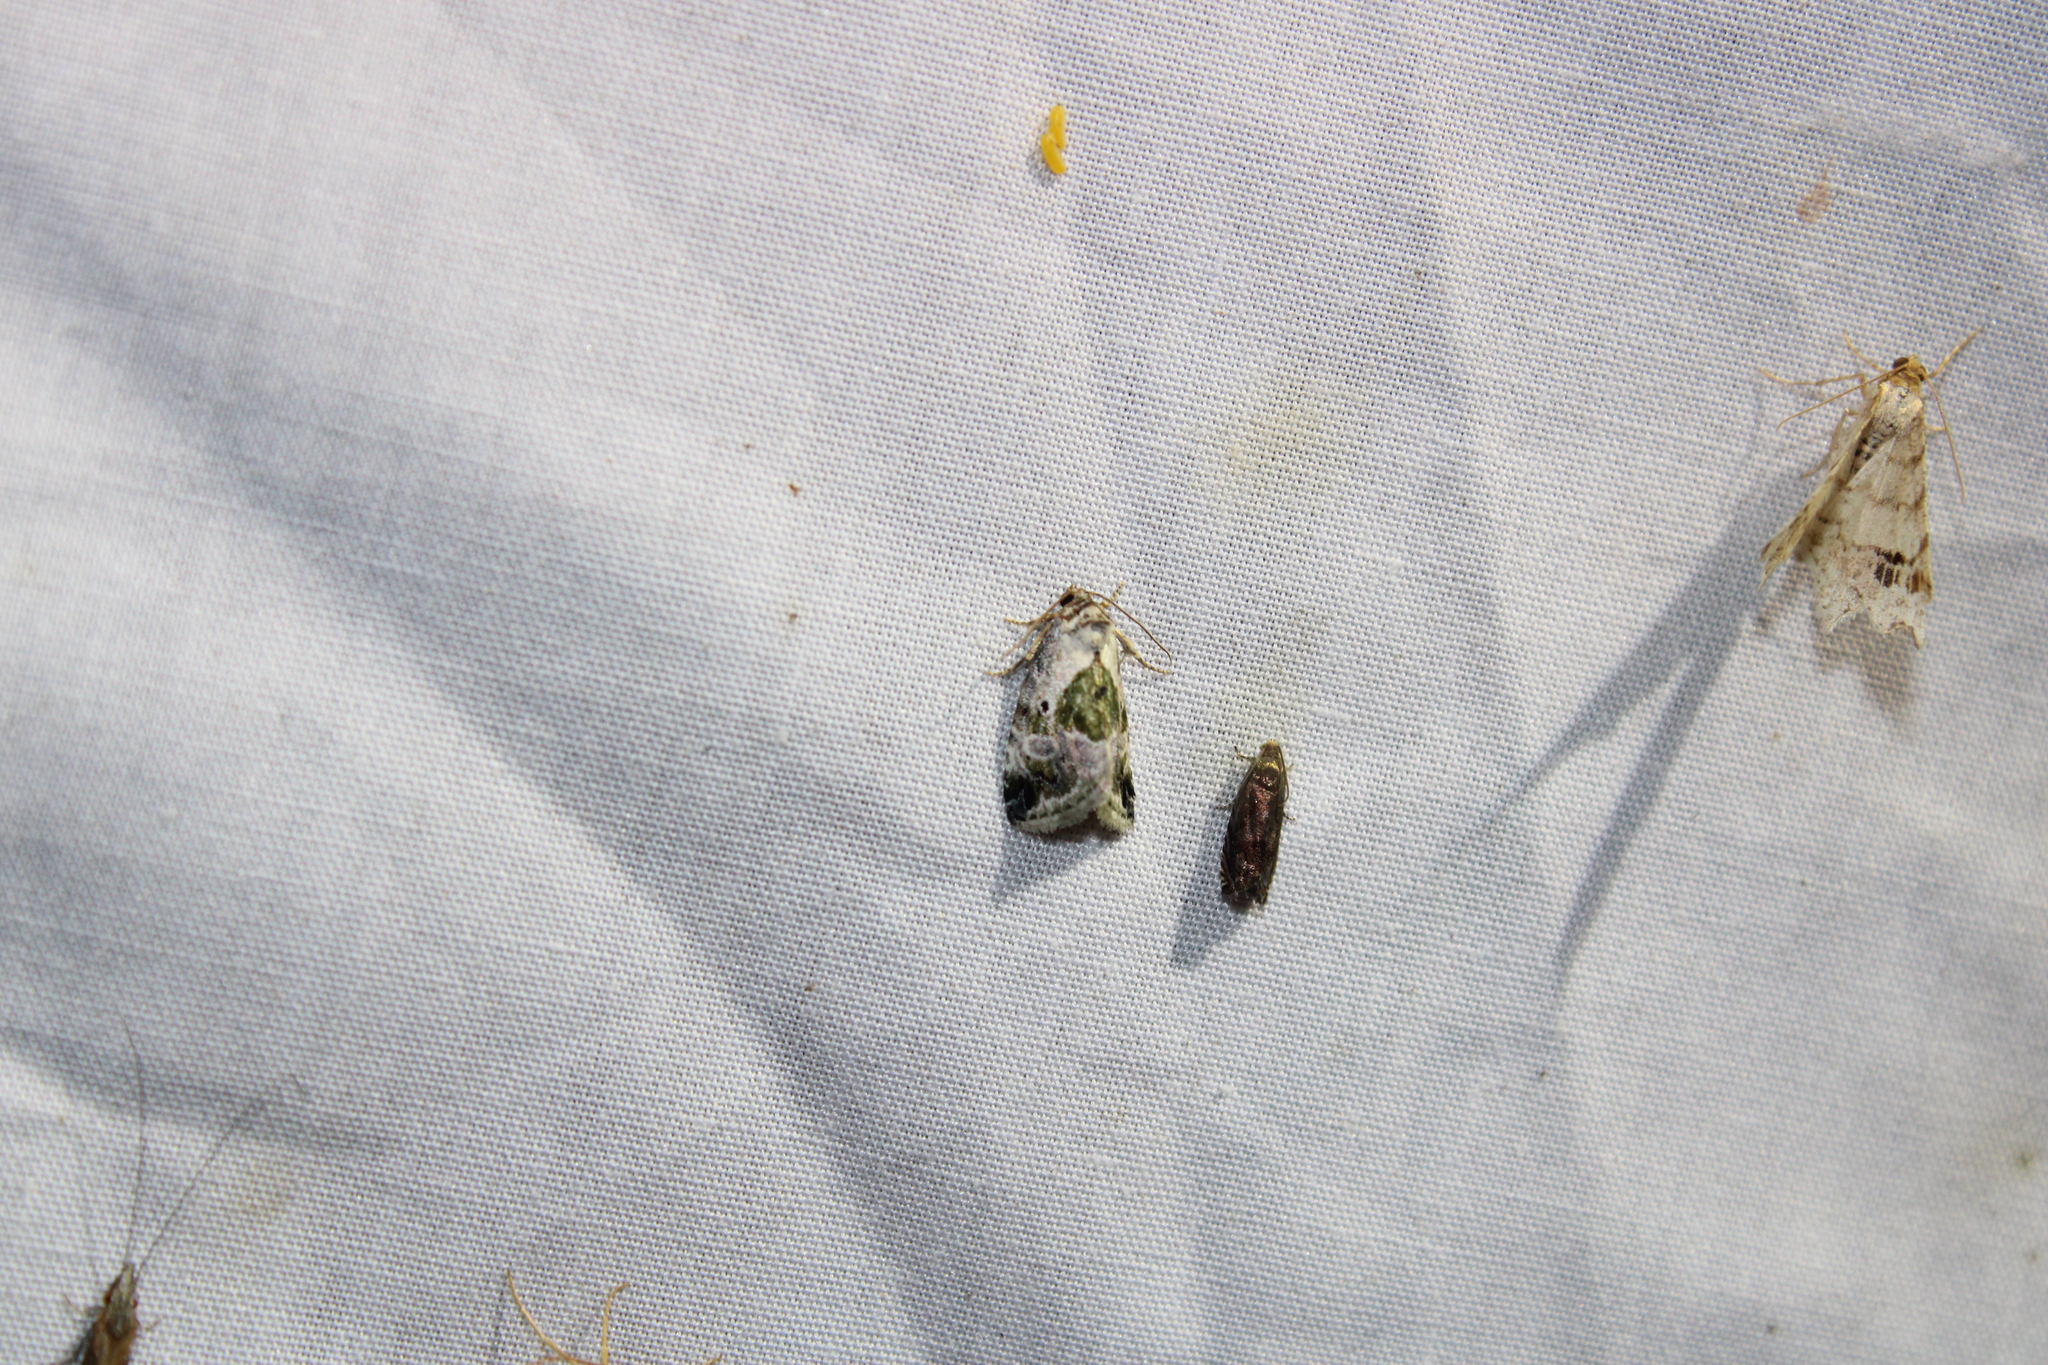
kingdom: Animalia
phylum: Arthropoda
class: Insecta
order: Lepidoptera
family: Noctuidae
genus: Maliattha
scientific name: Maliattha synochitis
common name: Black-dotted glyph
